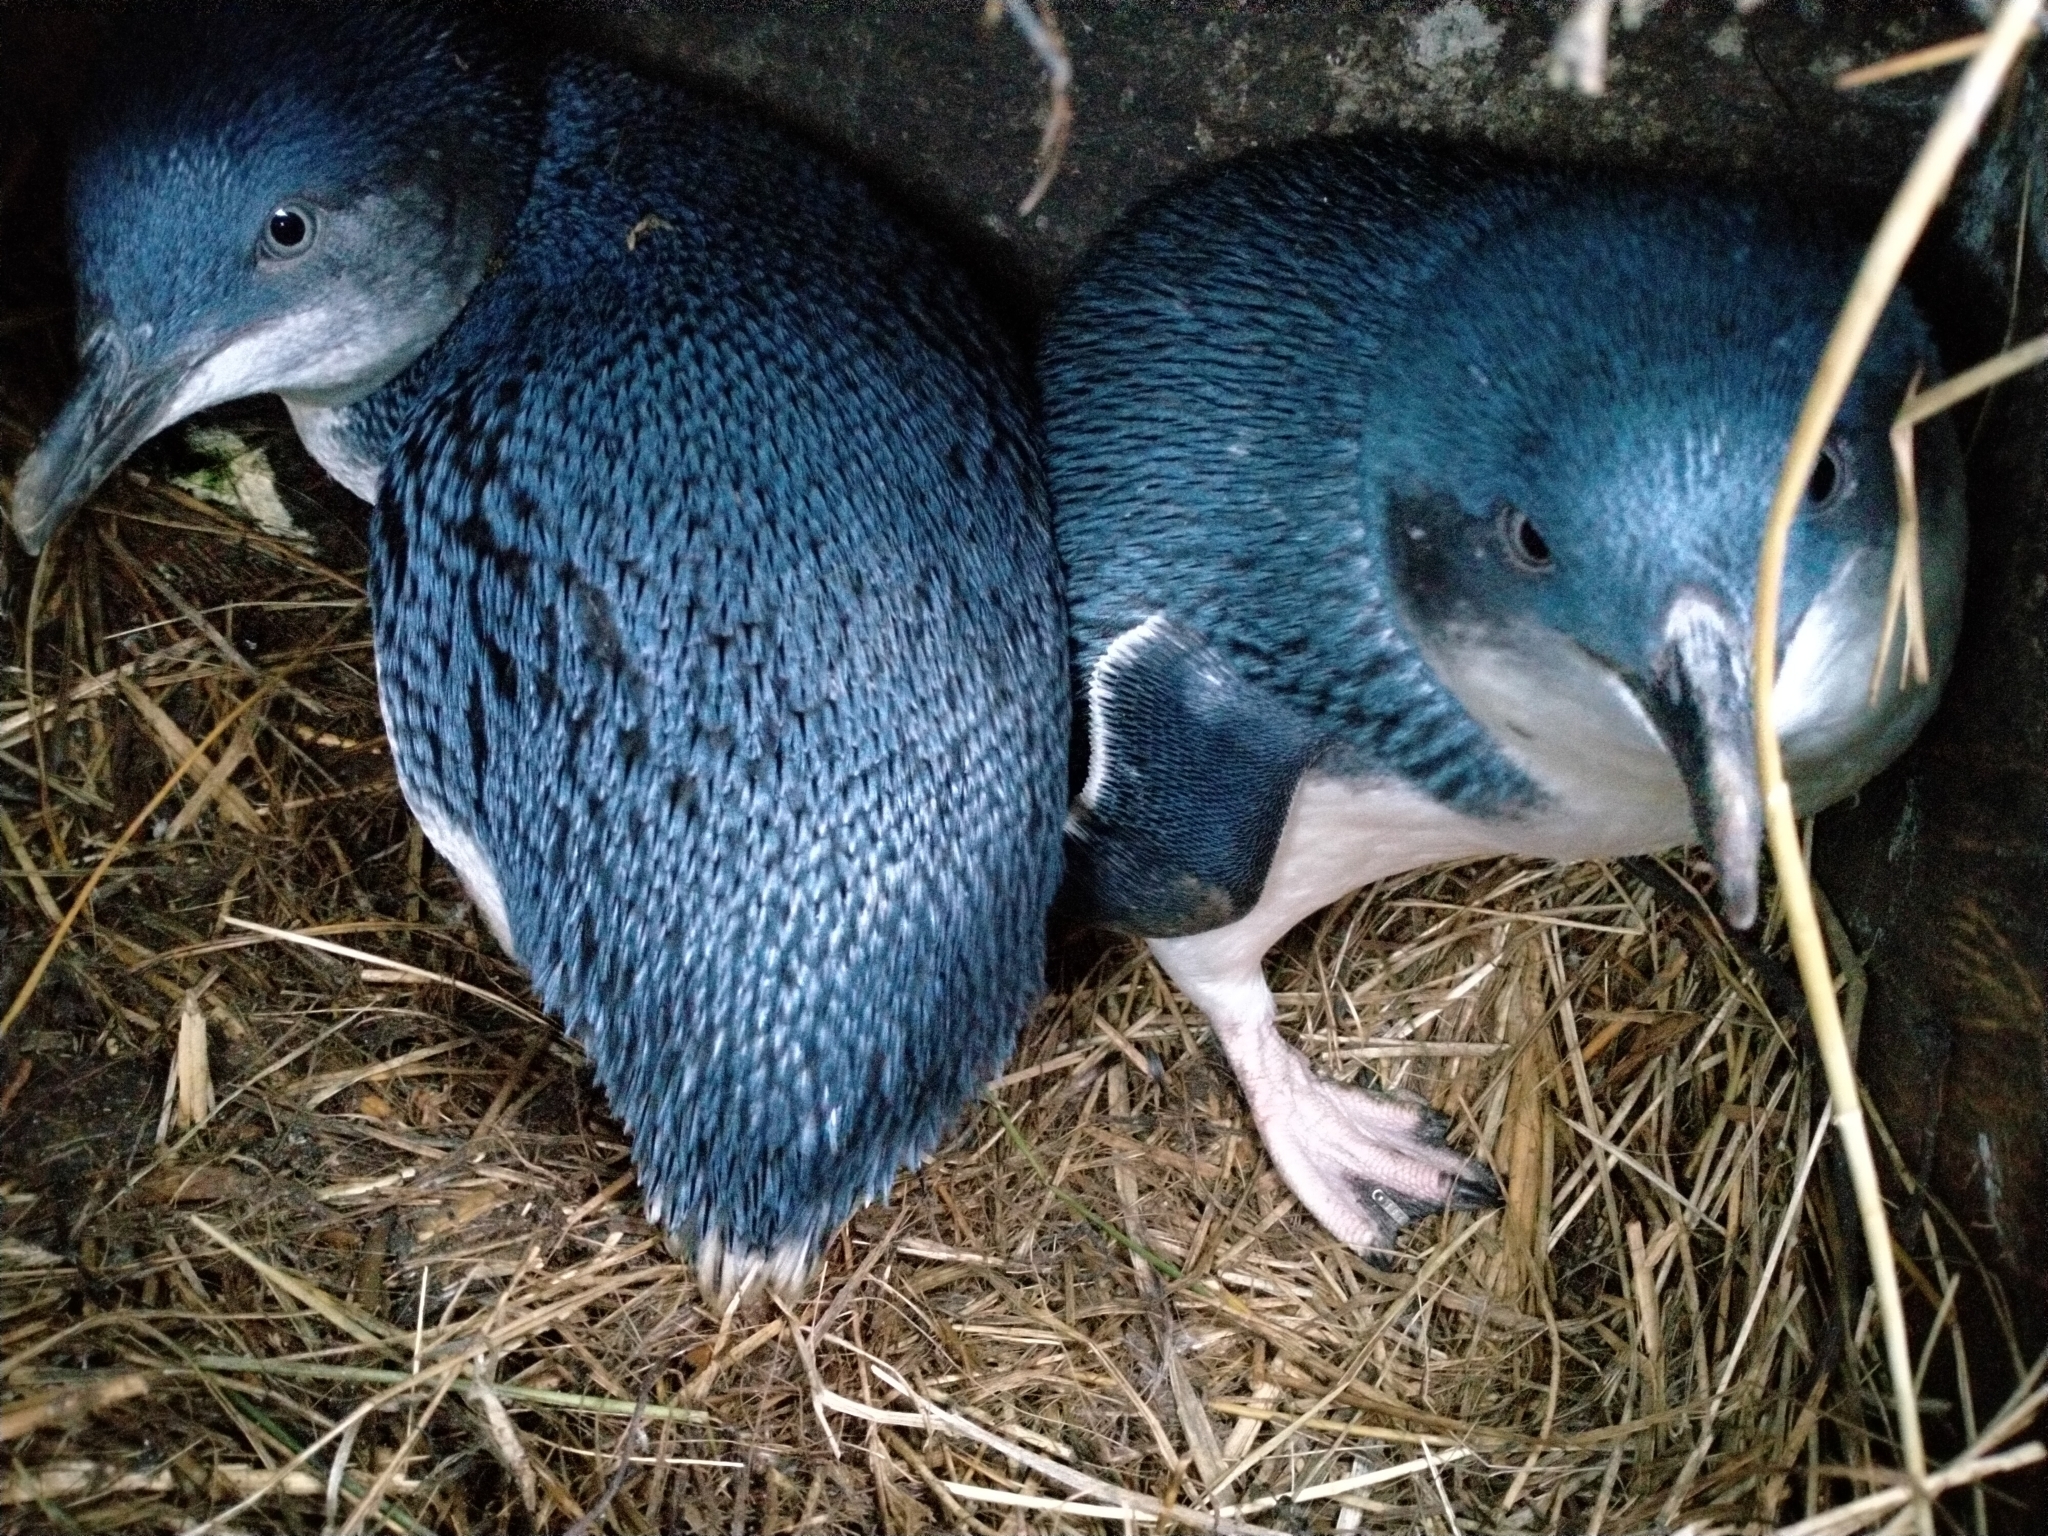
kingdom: Animalia
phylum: Chordata
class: Aves
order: Sphenisciformes
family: Spheniscidae
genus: Eudyptula
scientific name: Eudyptula minor
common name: Little penguin
